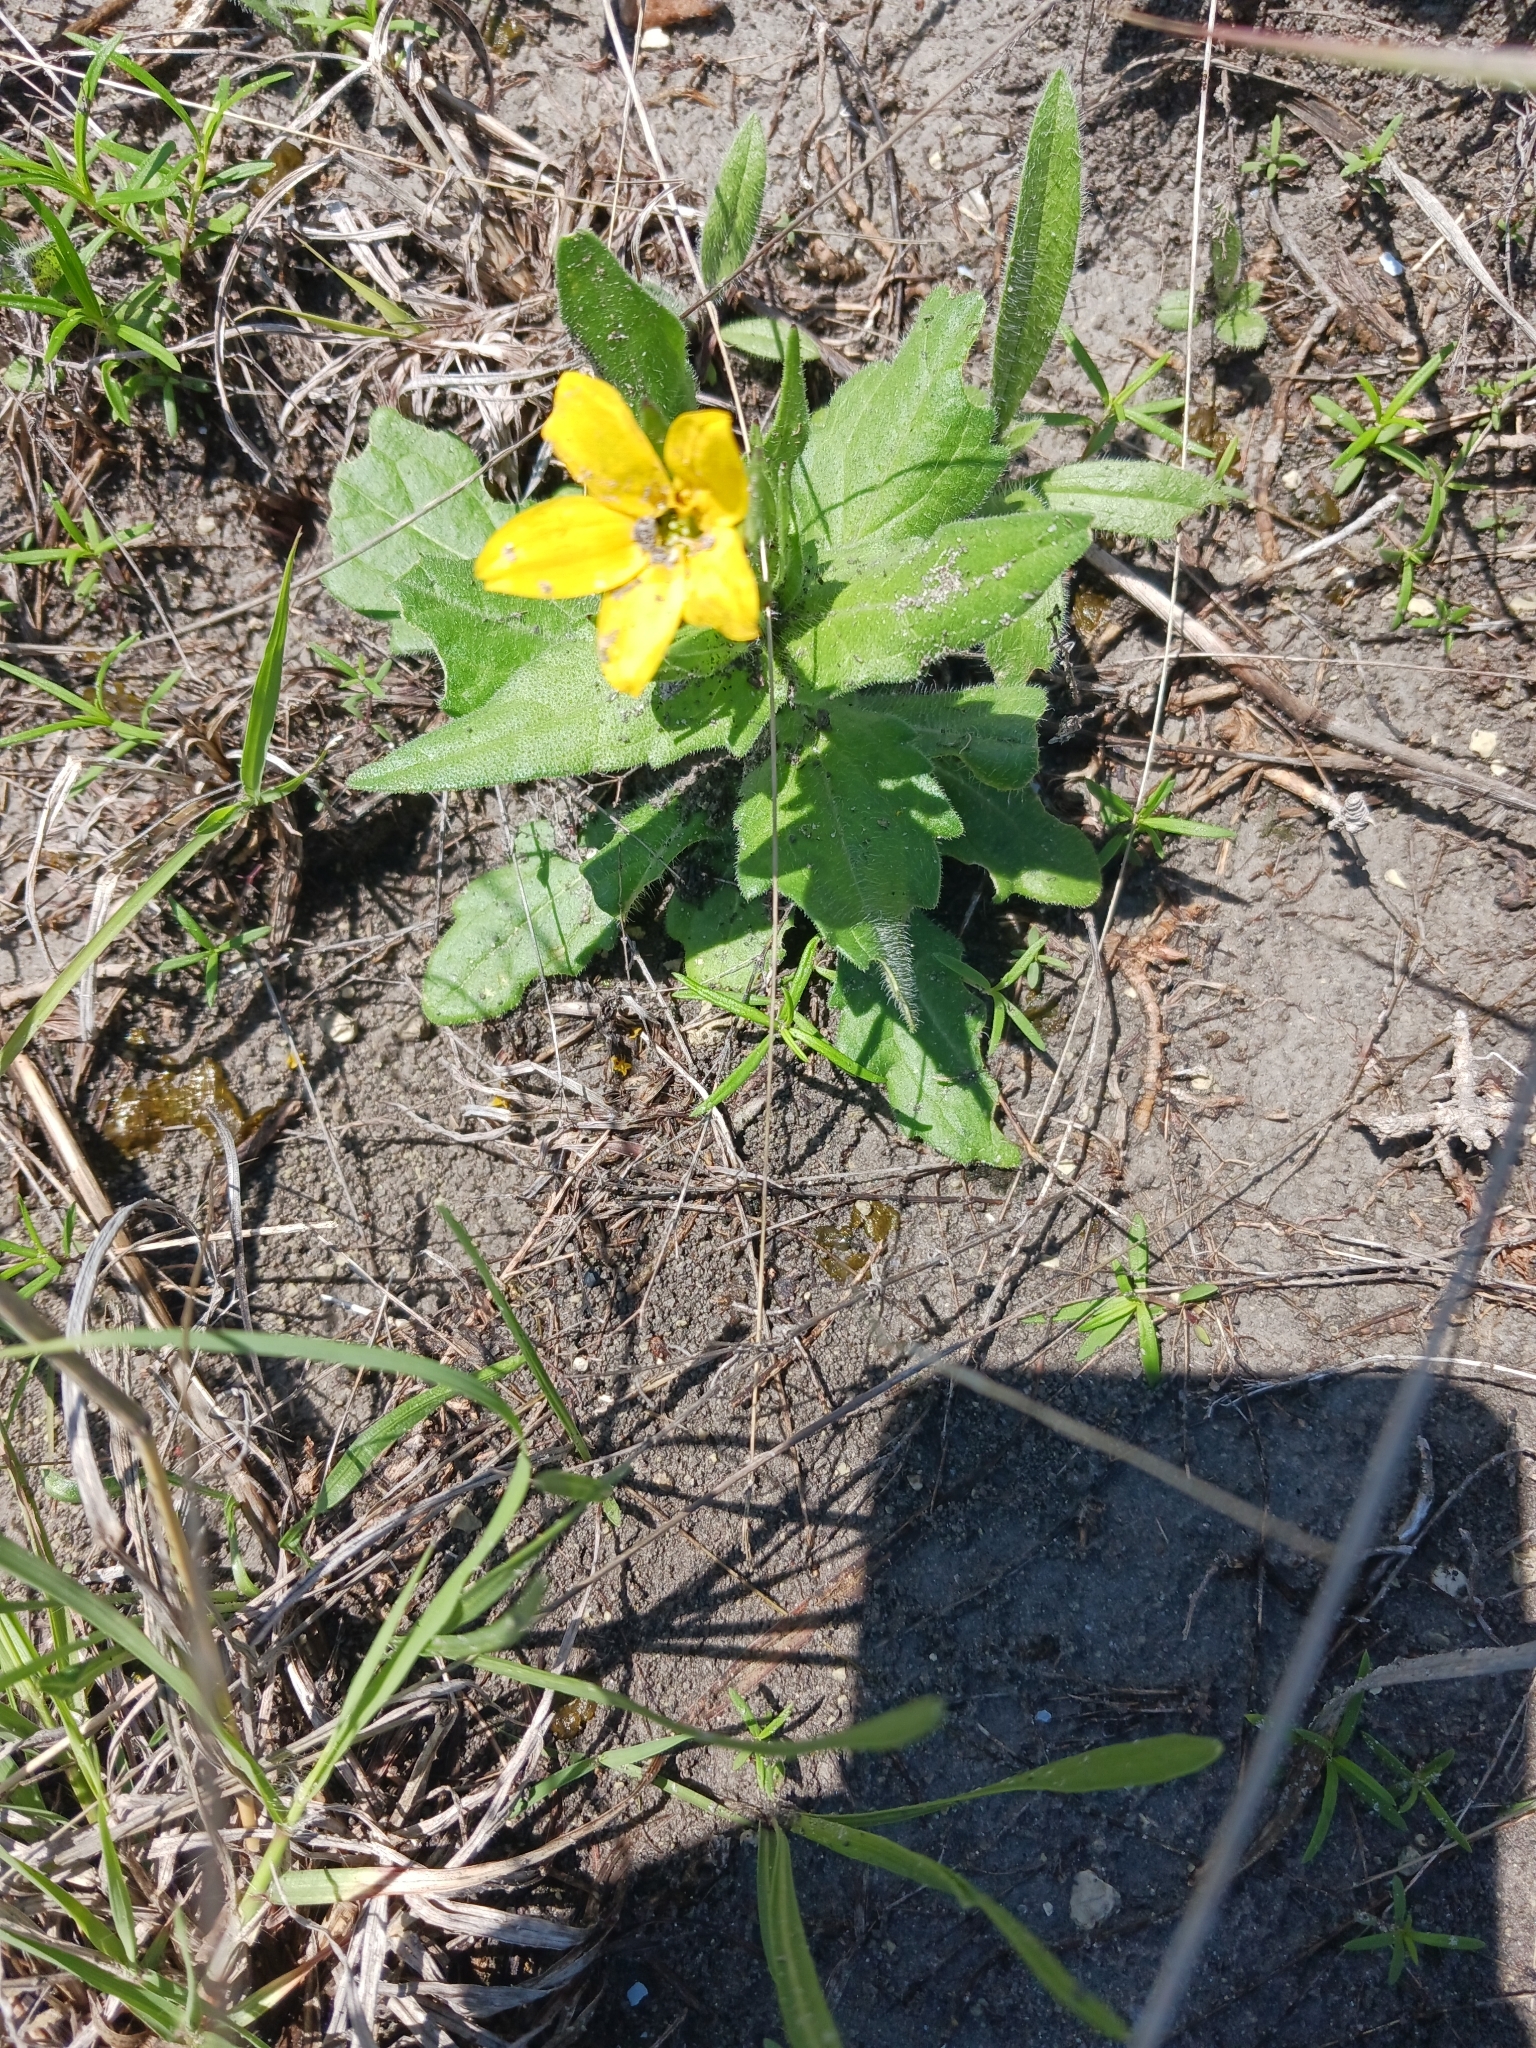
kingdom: Plantae
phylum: Tracheophyta
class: Magnoliopsida
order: Asterales
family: Asteraceae
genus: Lindheimera
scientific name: Lindheimera texana
